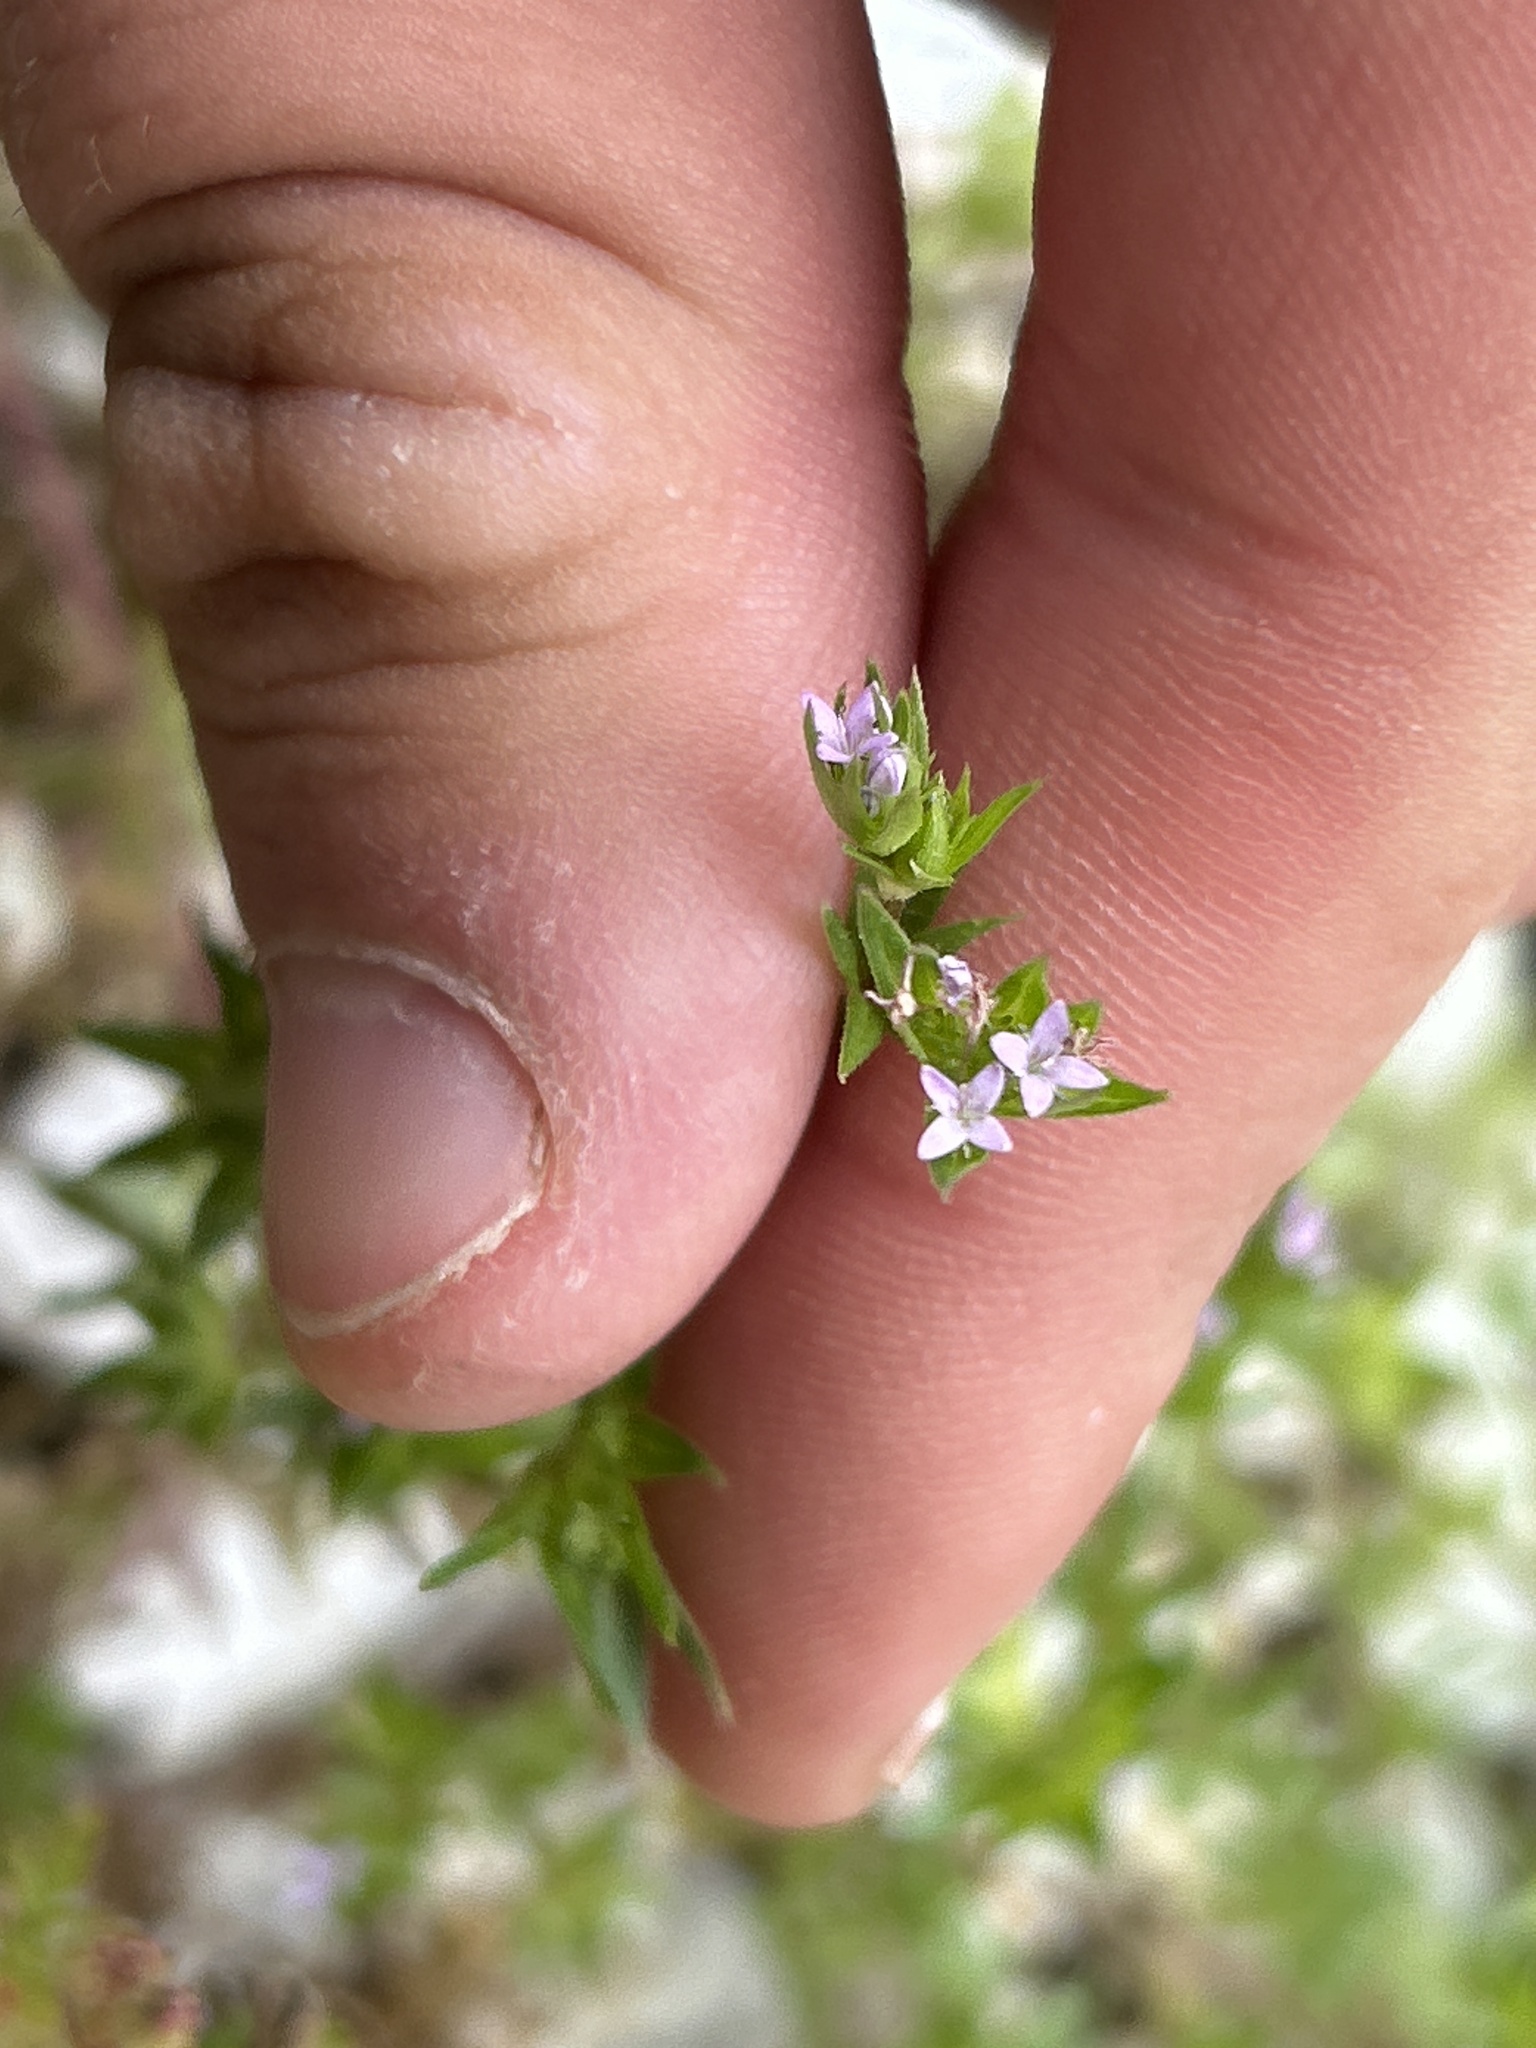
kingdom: Plantae
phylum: Tracheophyta
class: Magnoliopsida
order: Gentianales
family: Rubiaceae
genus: Sherardia
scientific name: Sherardia arvensis
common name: Field madder
